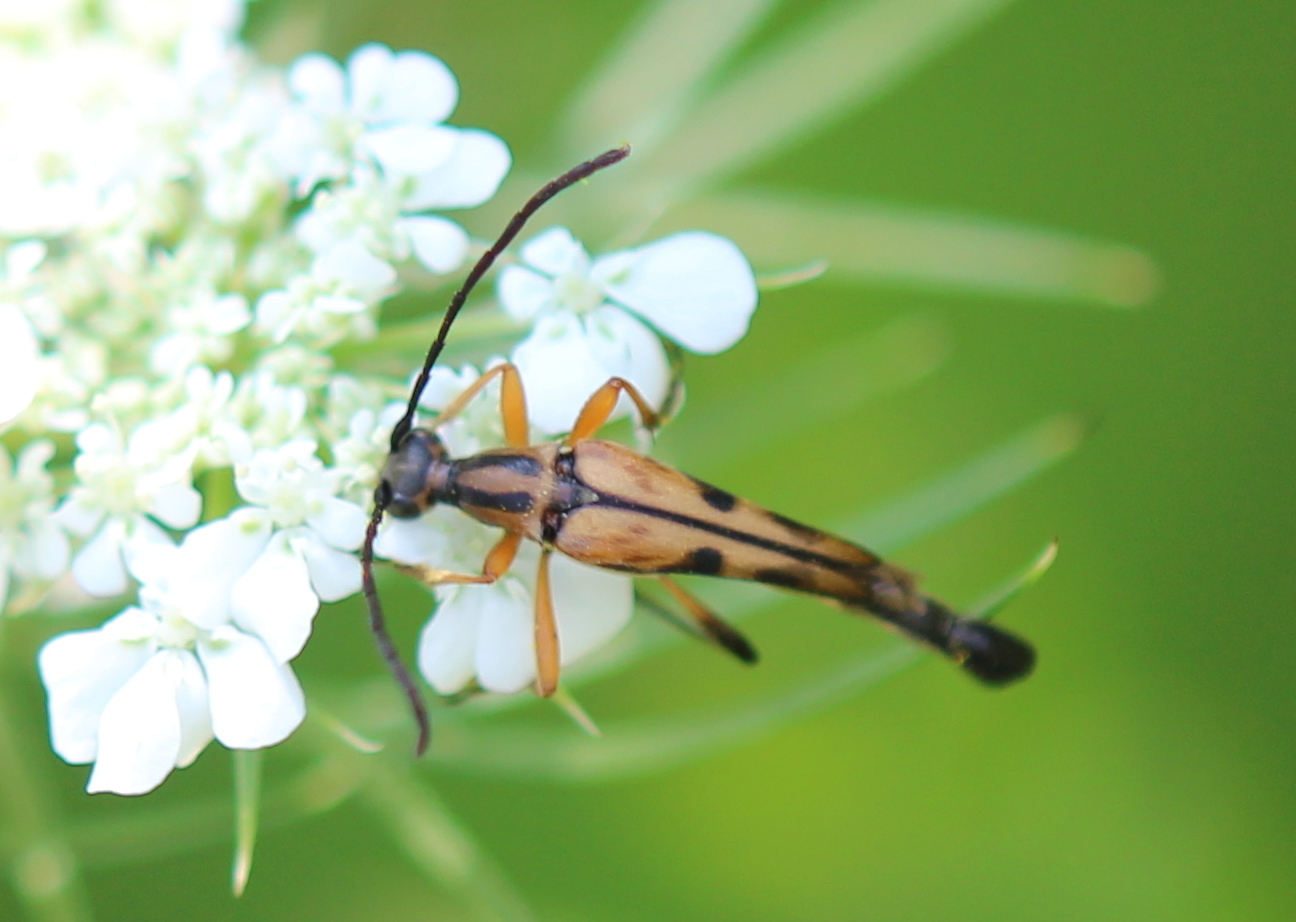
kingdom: Animalia
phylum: Arthropoda
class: Insecta
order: Coleoptera
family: Cerambycidae
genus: Strangalia
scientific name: Strangalia famelica
